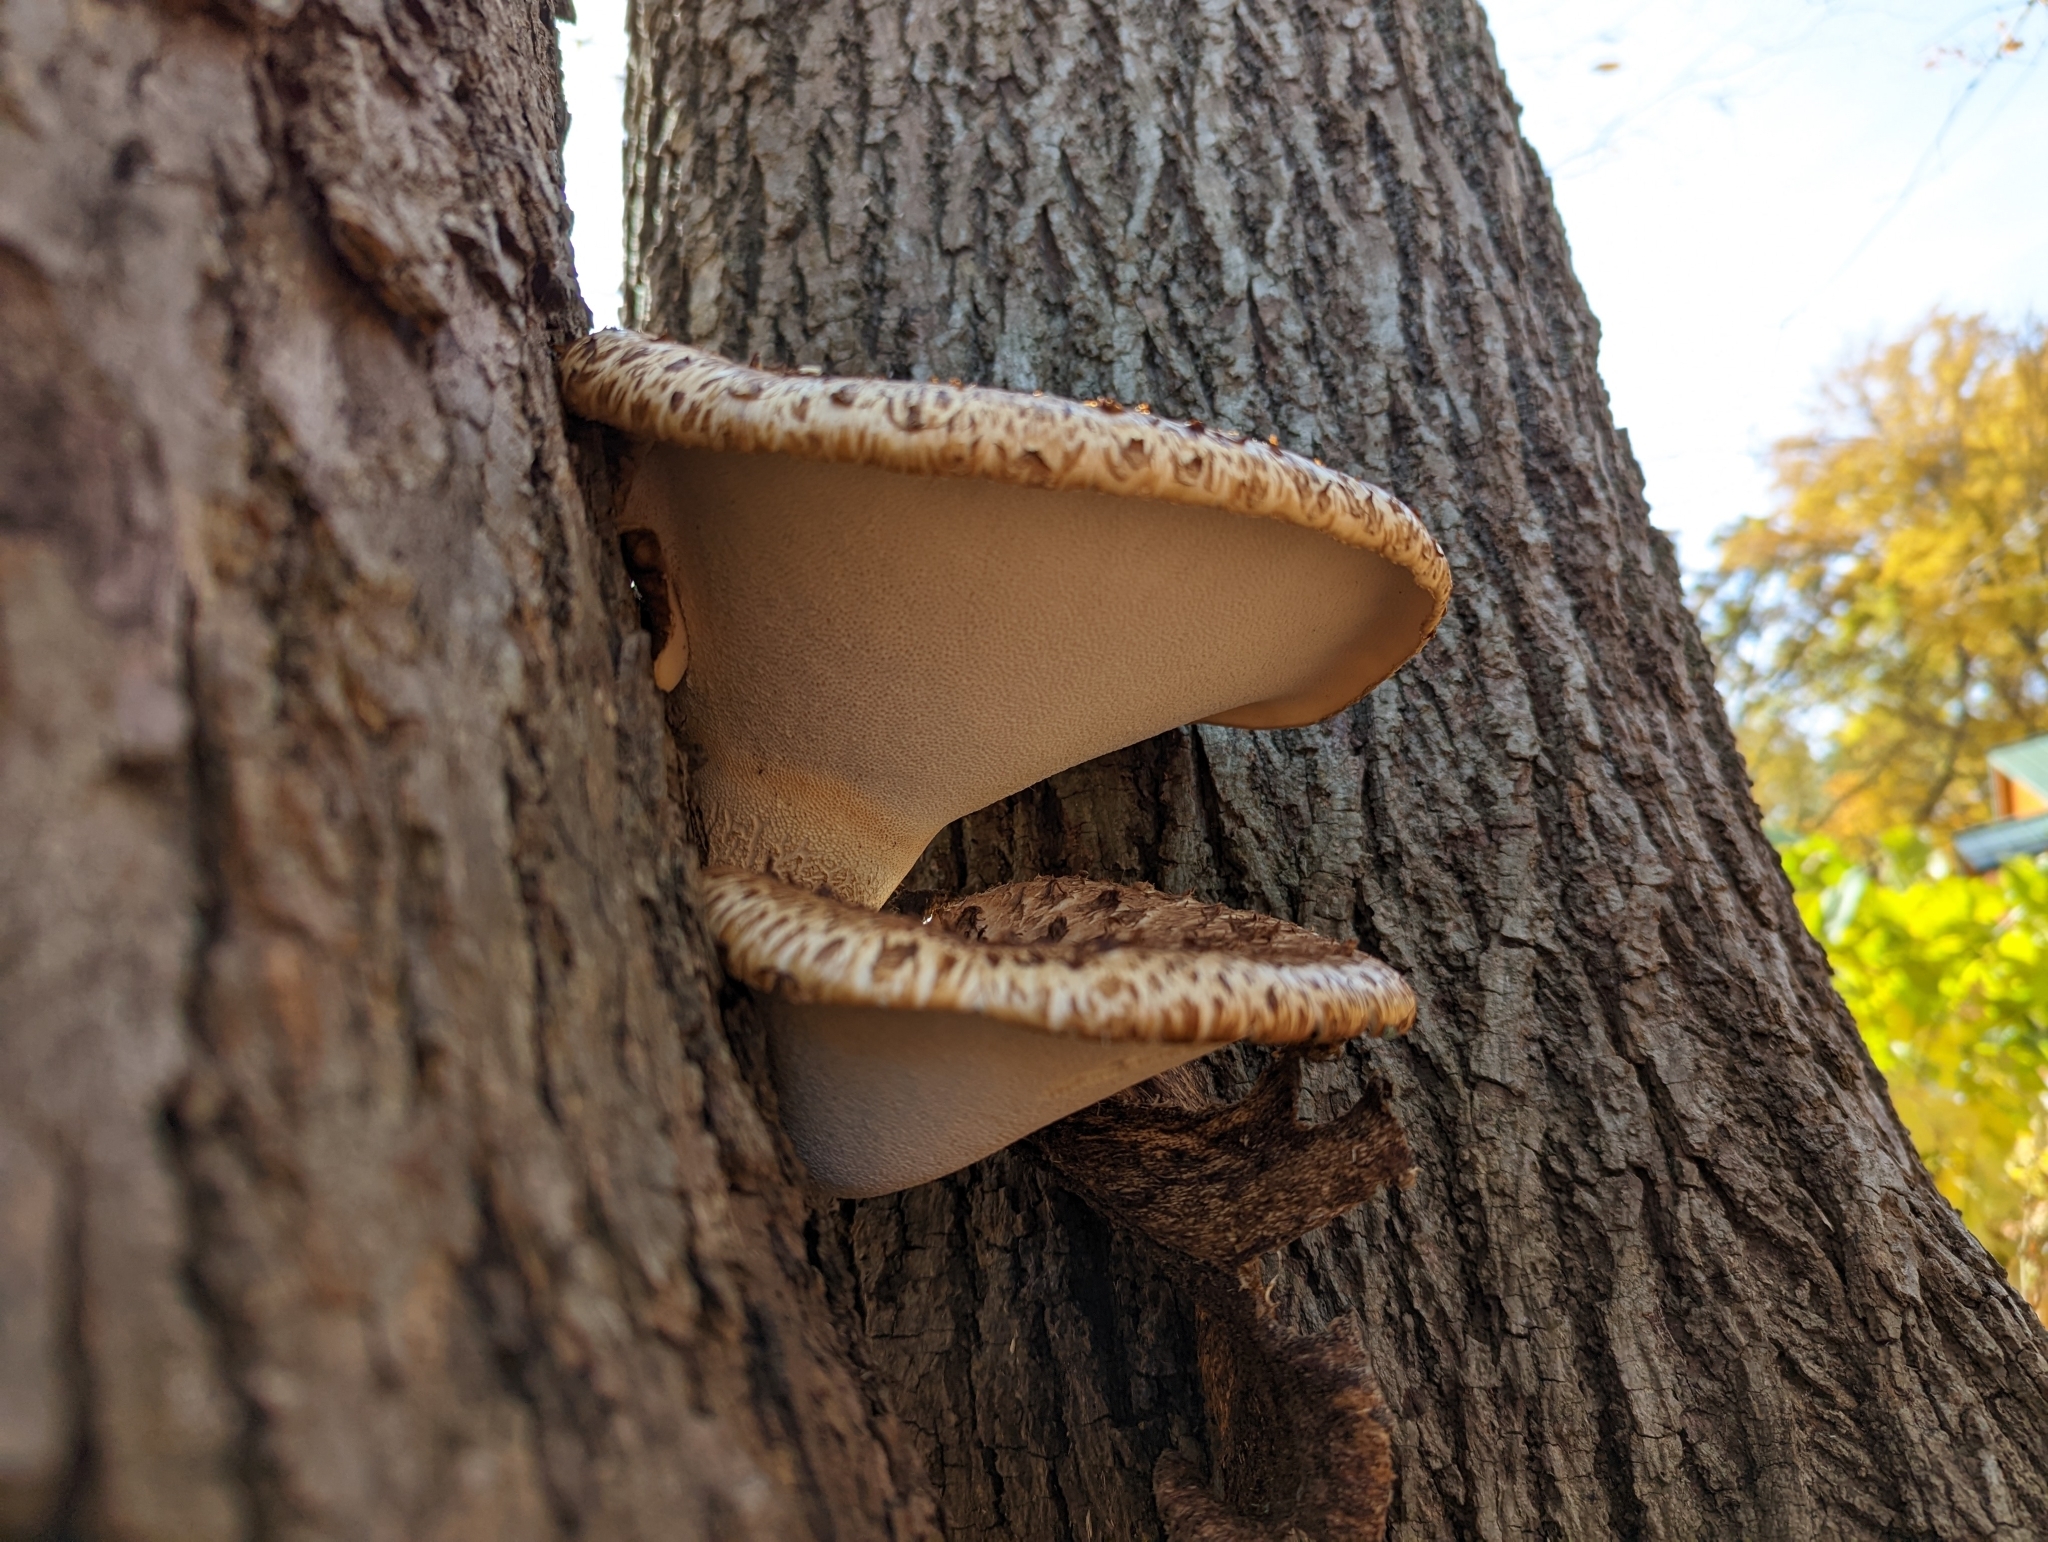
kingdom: Fungi
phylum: Basidiomycota
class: Agaricomycetes
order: Polyporales
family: Polyporaceae
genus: Cerioporus
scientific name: Cerioporus squamosus
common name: Dryad's saddle
